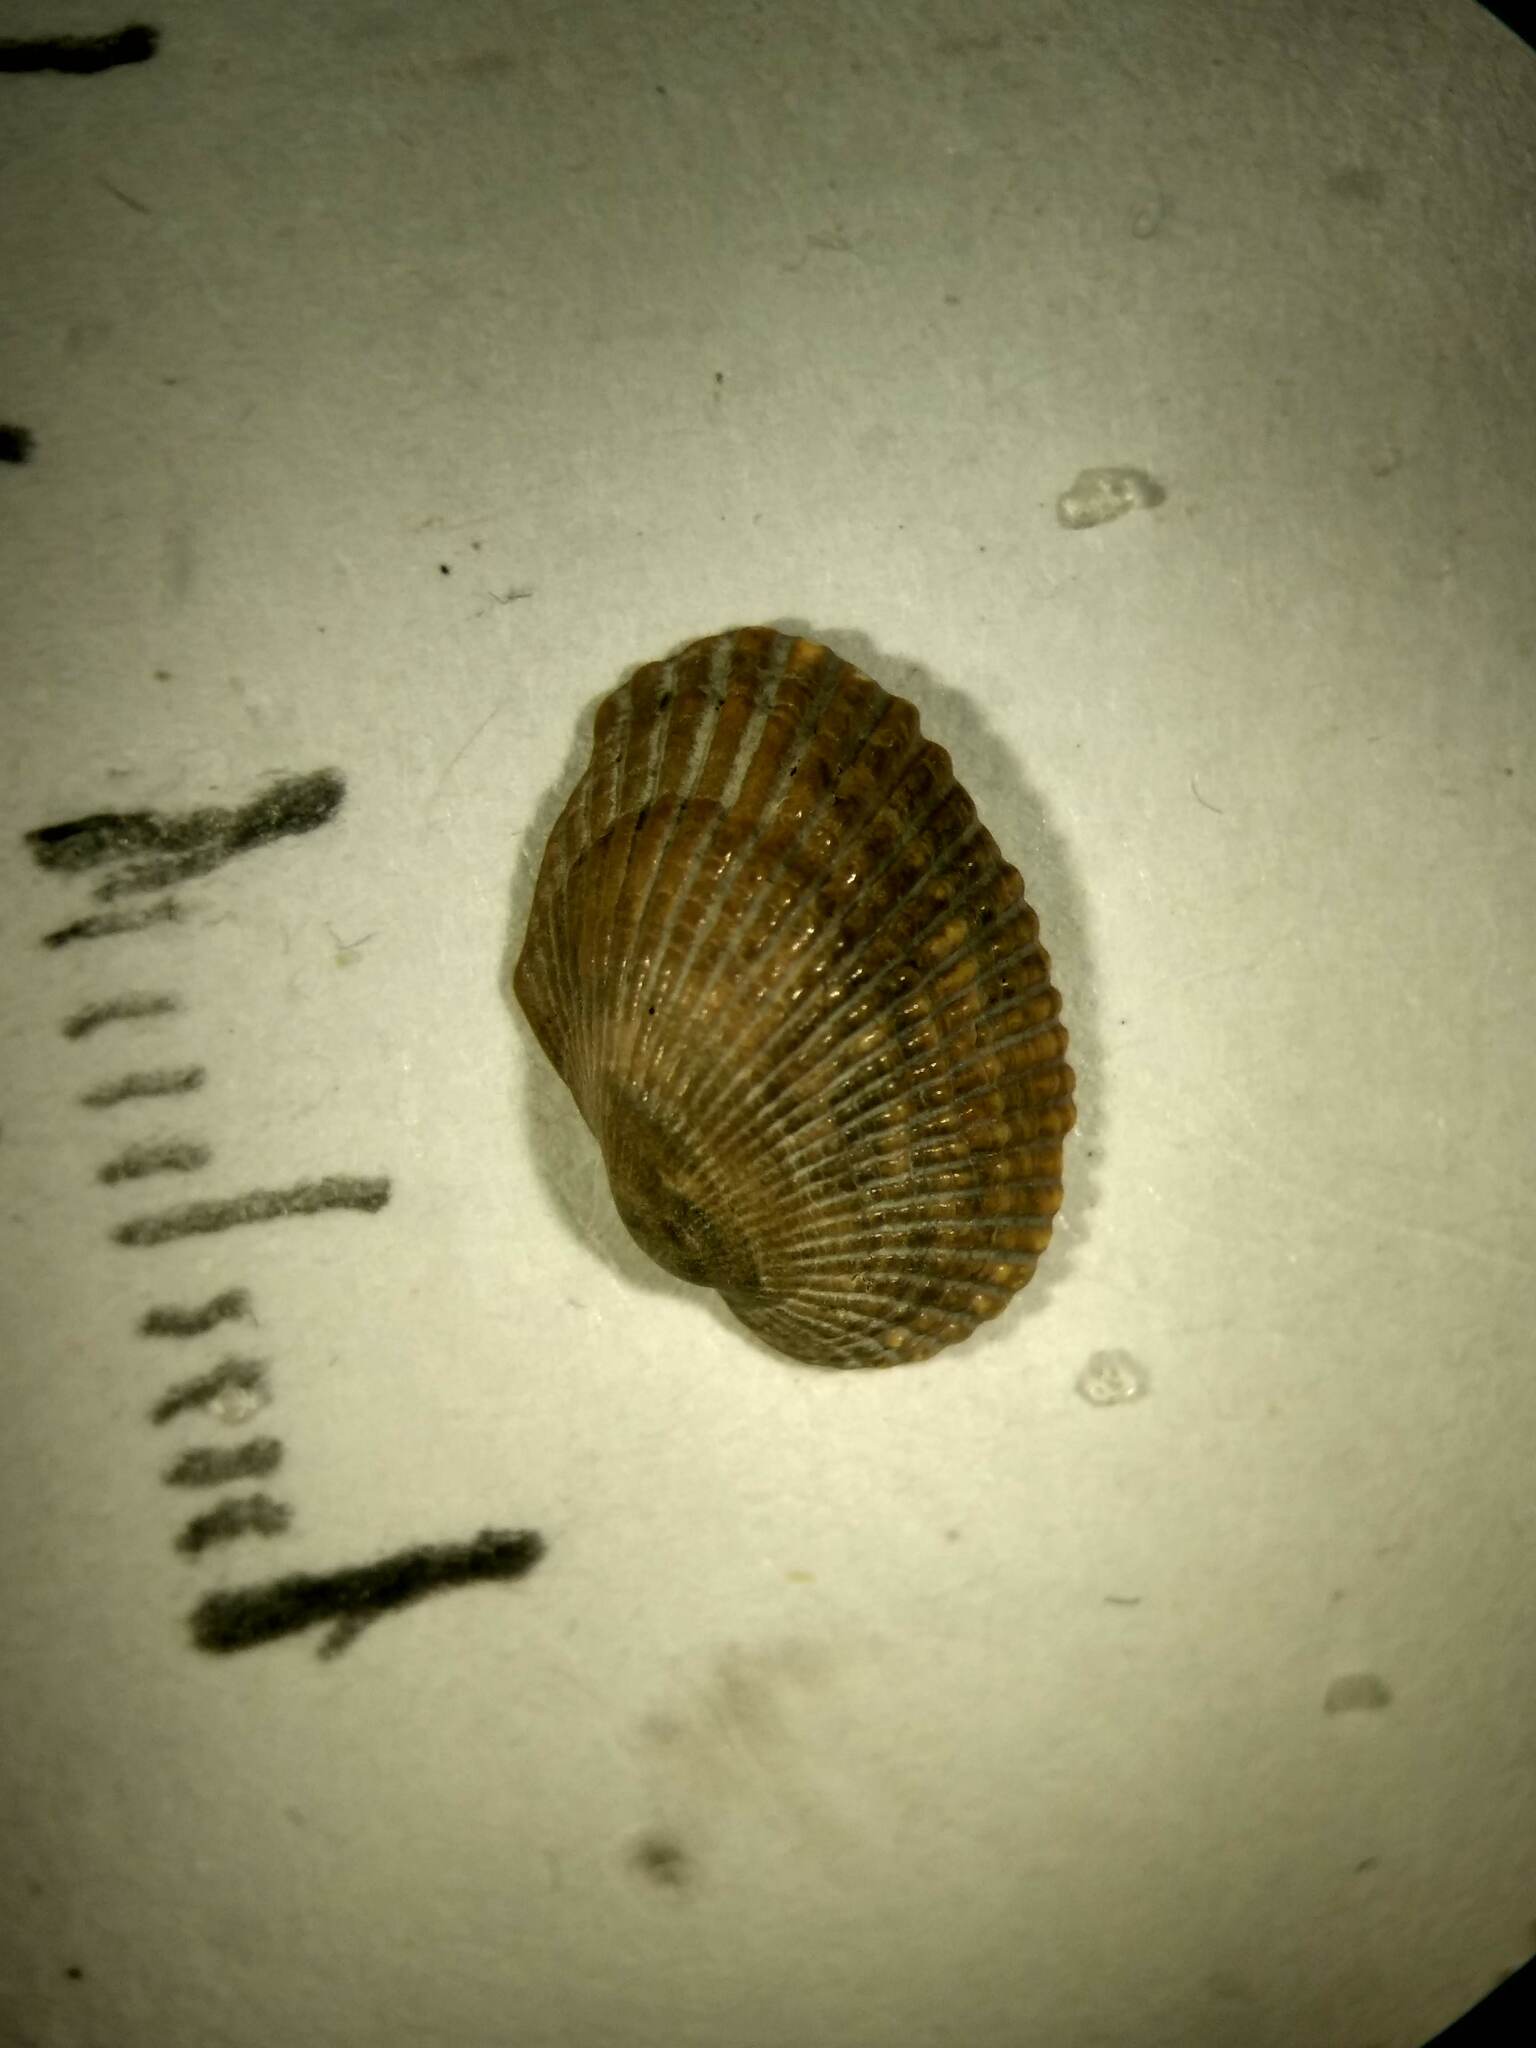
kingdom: Animalia
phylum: Mollusca
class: Bivalvia
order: Arcida
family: Arcidae
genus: Anadara
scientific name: Anadara transversa
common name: Transverse ark
